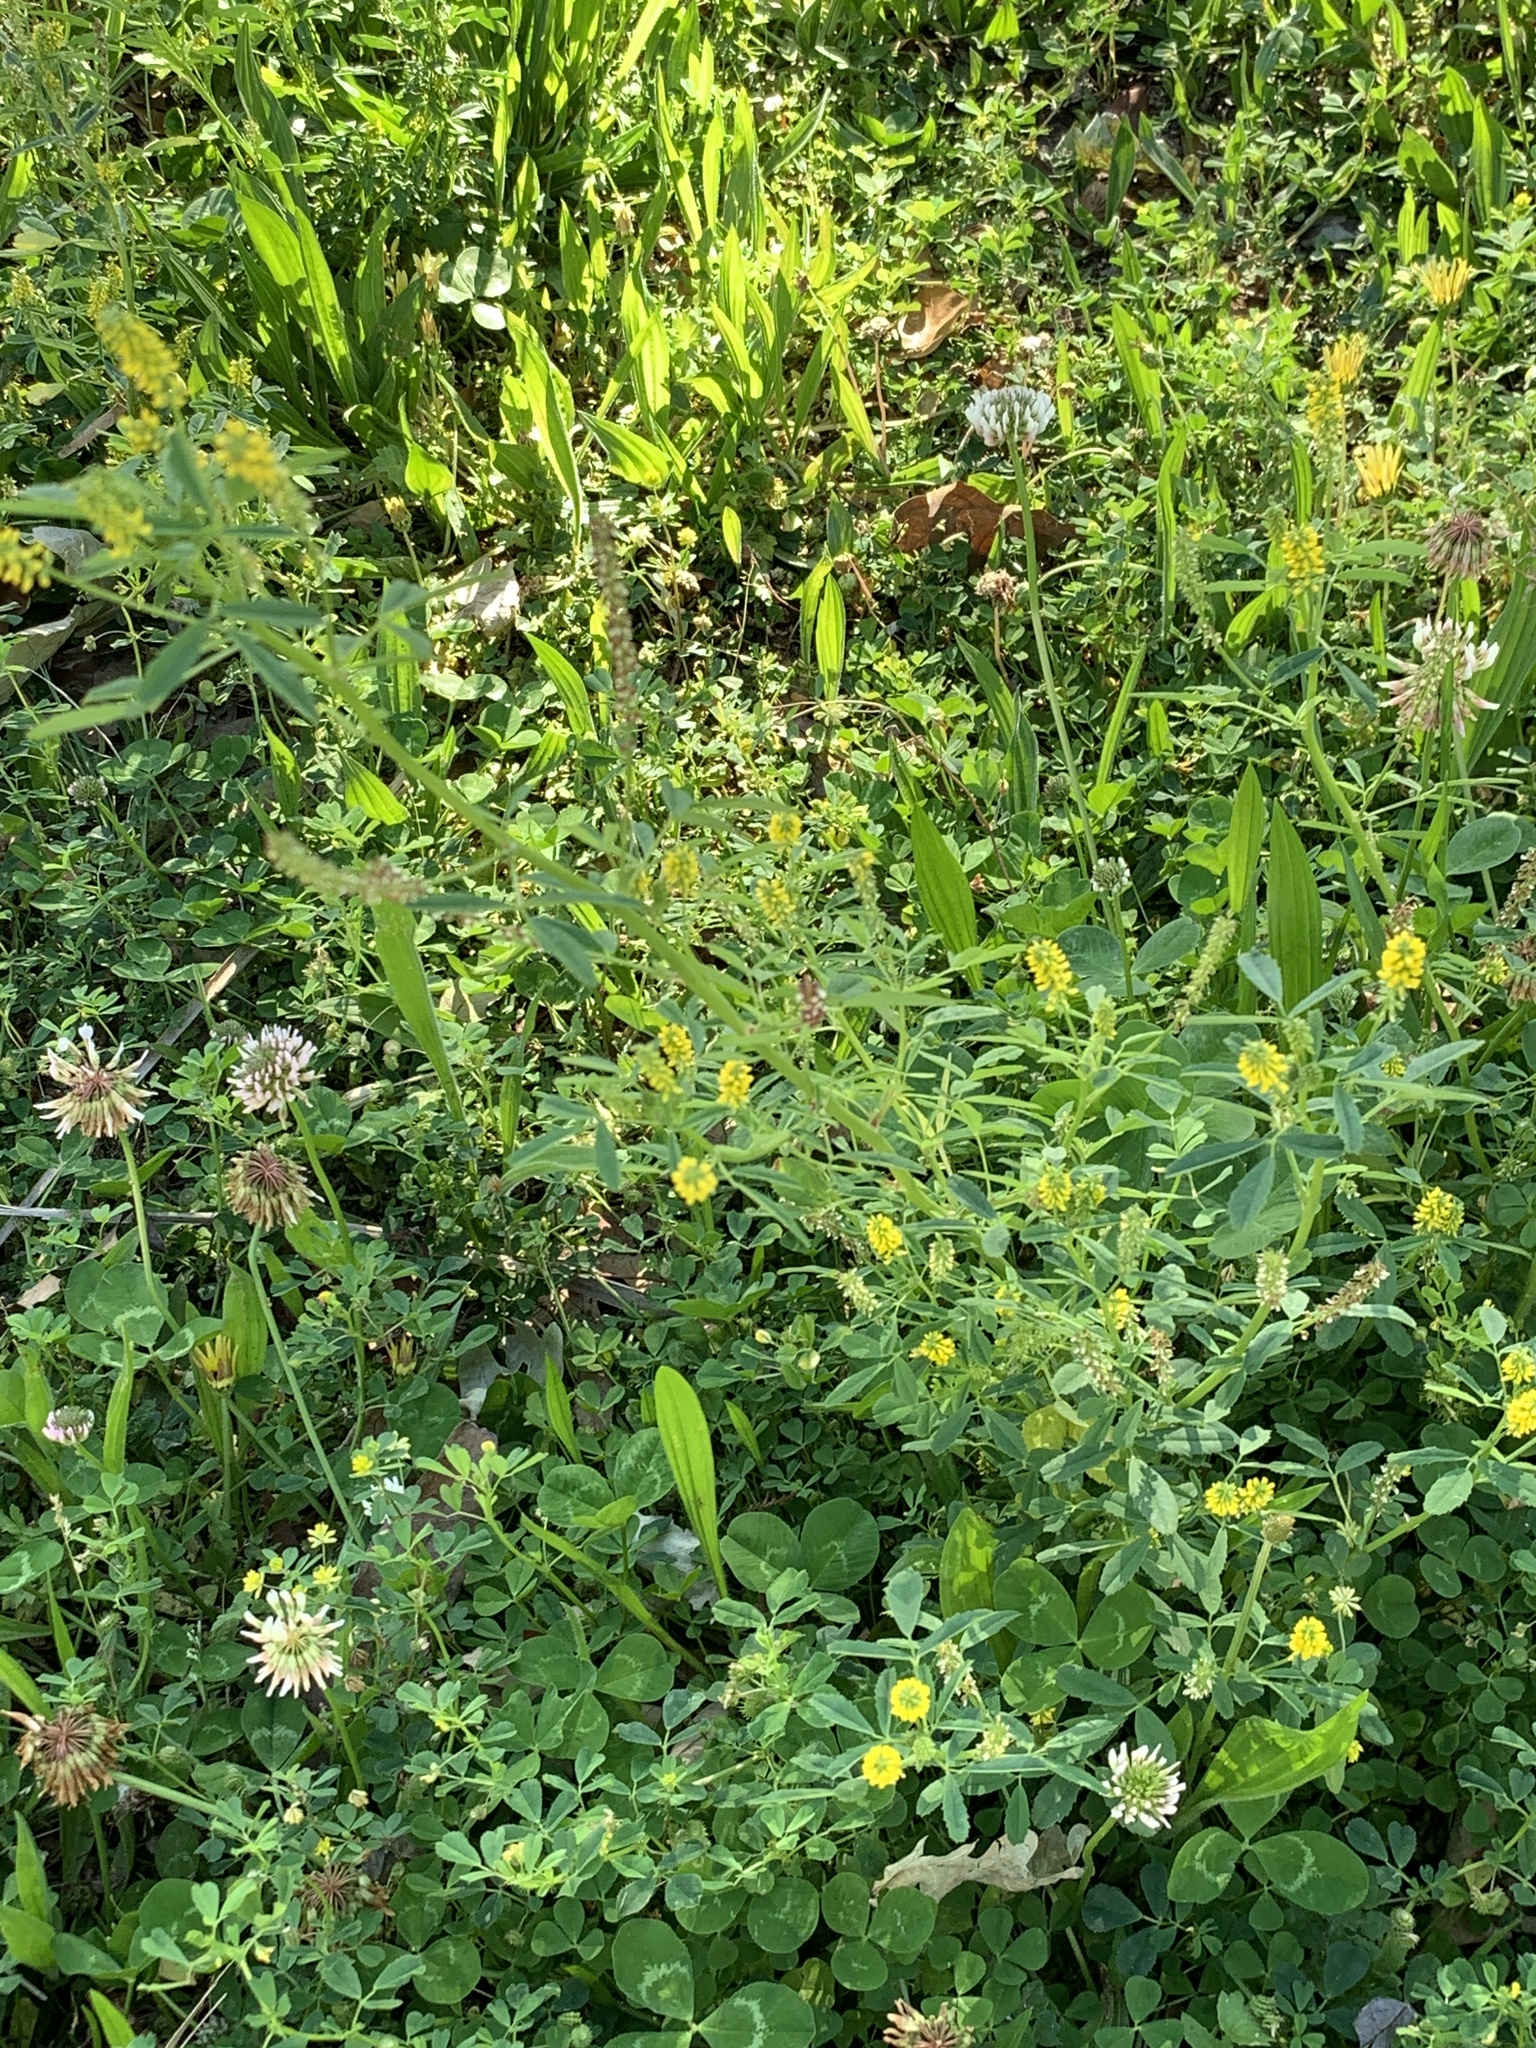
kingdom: Plantae
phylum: Tracheophyta
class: Magnoliopsida
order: Fabales
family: Fabaceae
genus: Melilotus
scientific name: Melilotus indicus
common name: Small melilot
